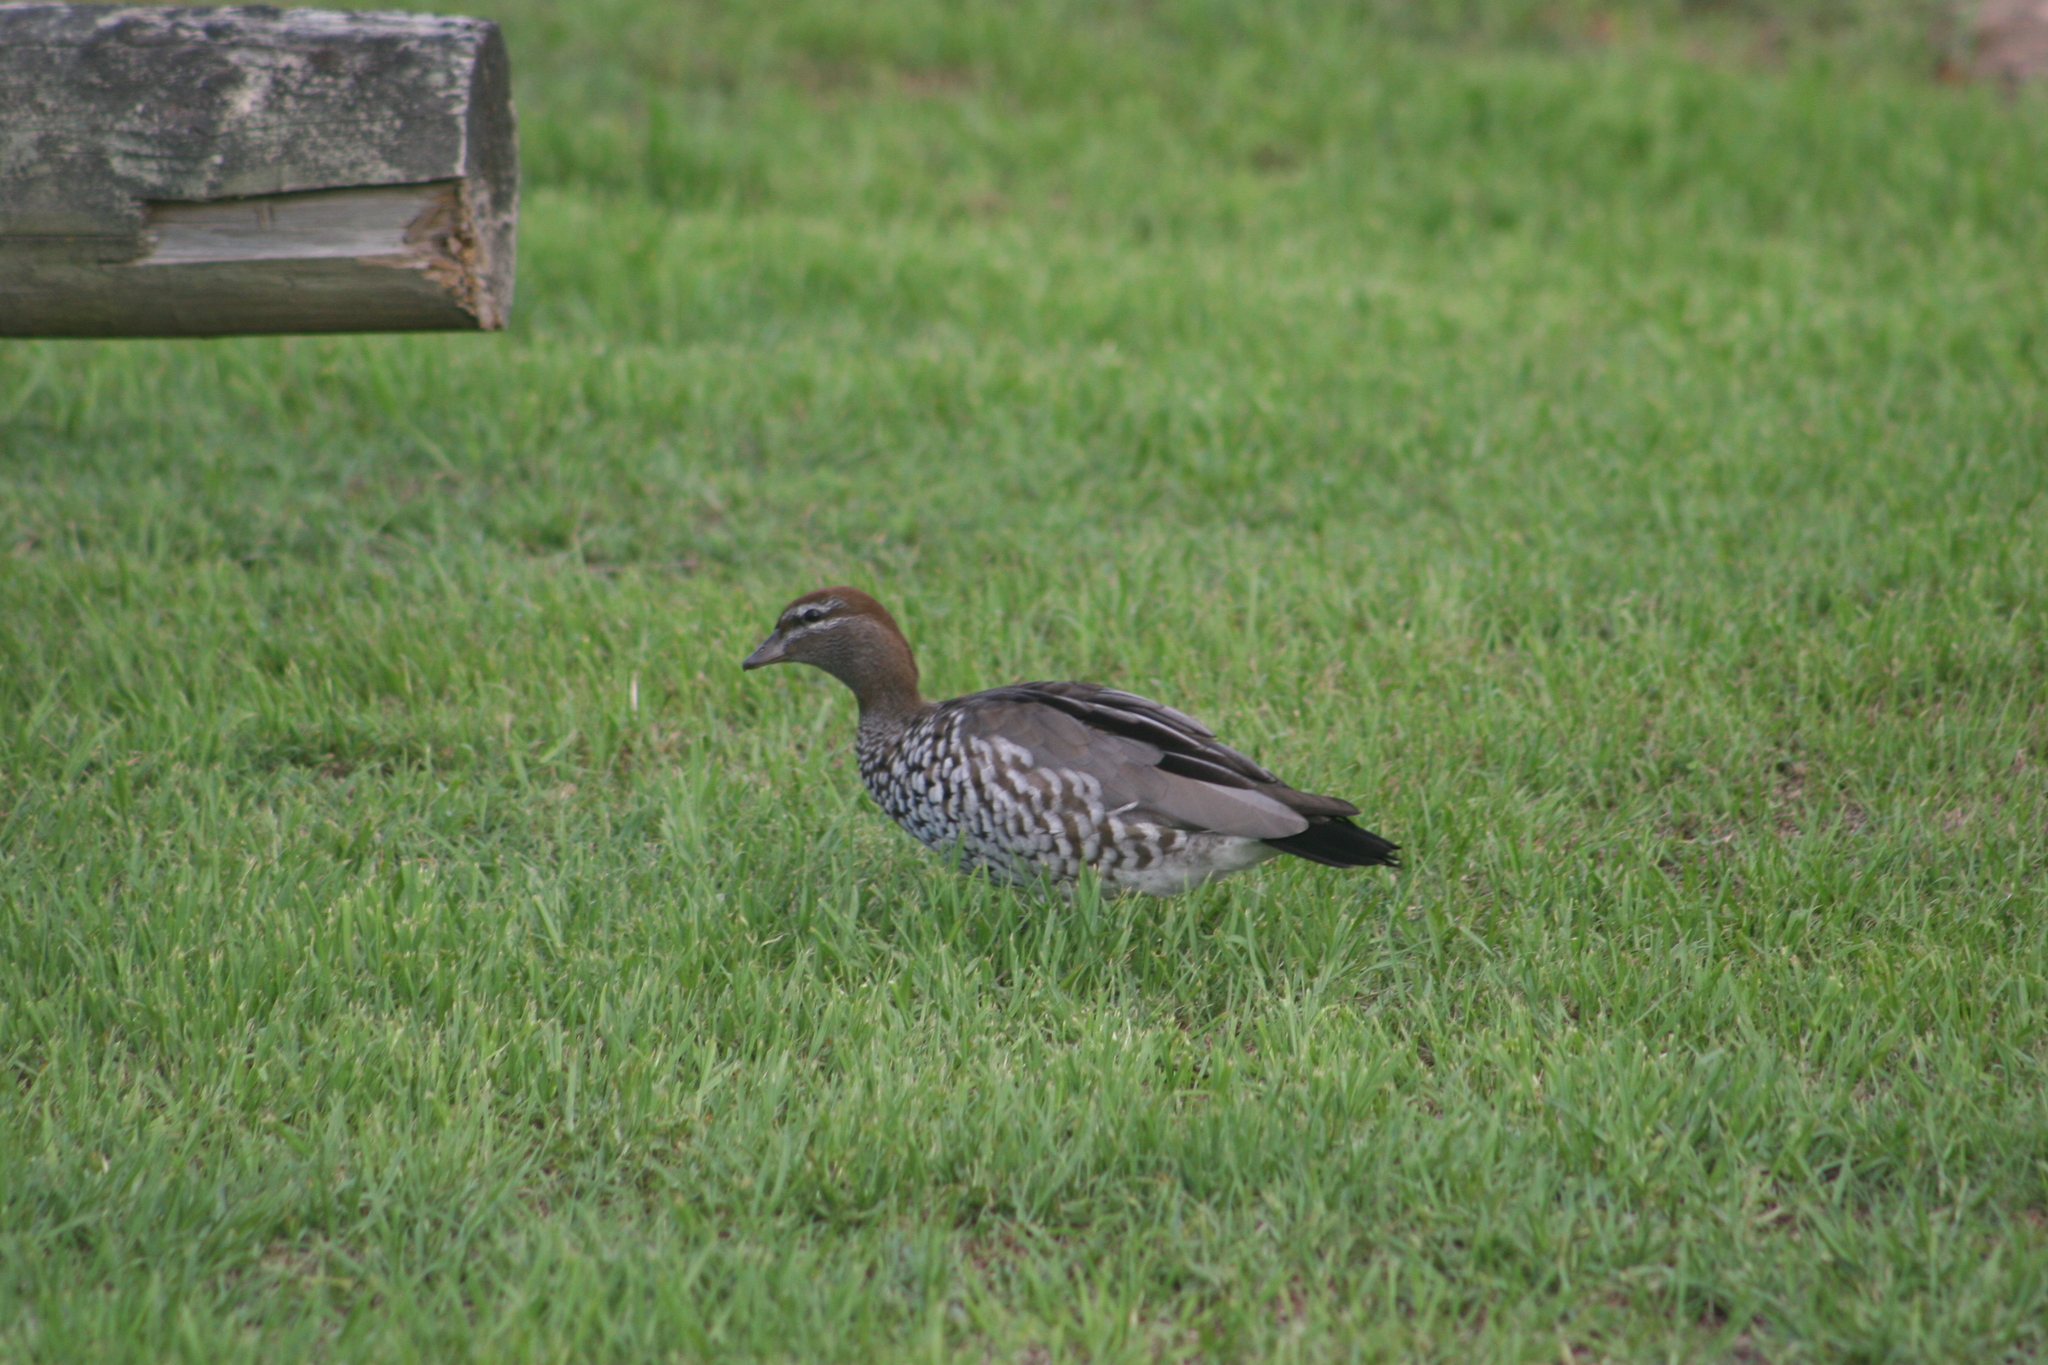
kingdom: Animalia
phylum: Chordata
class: Aves
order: Anseriformes
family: Anatidae
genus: Chenonetta
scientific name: Chenonetta jubata
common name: Maned duck
